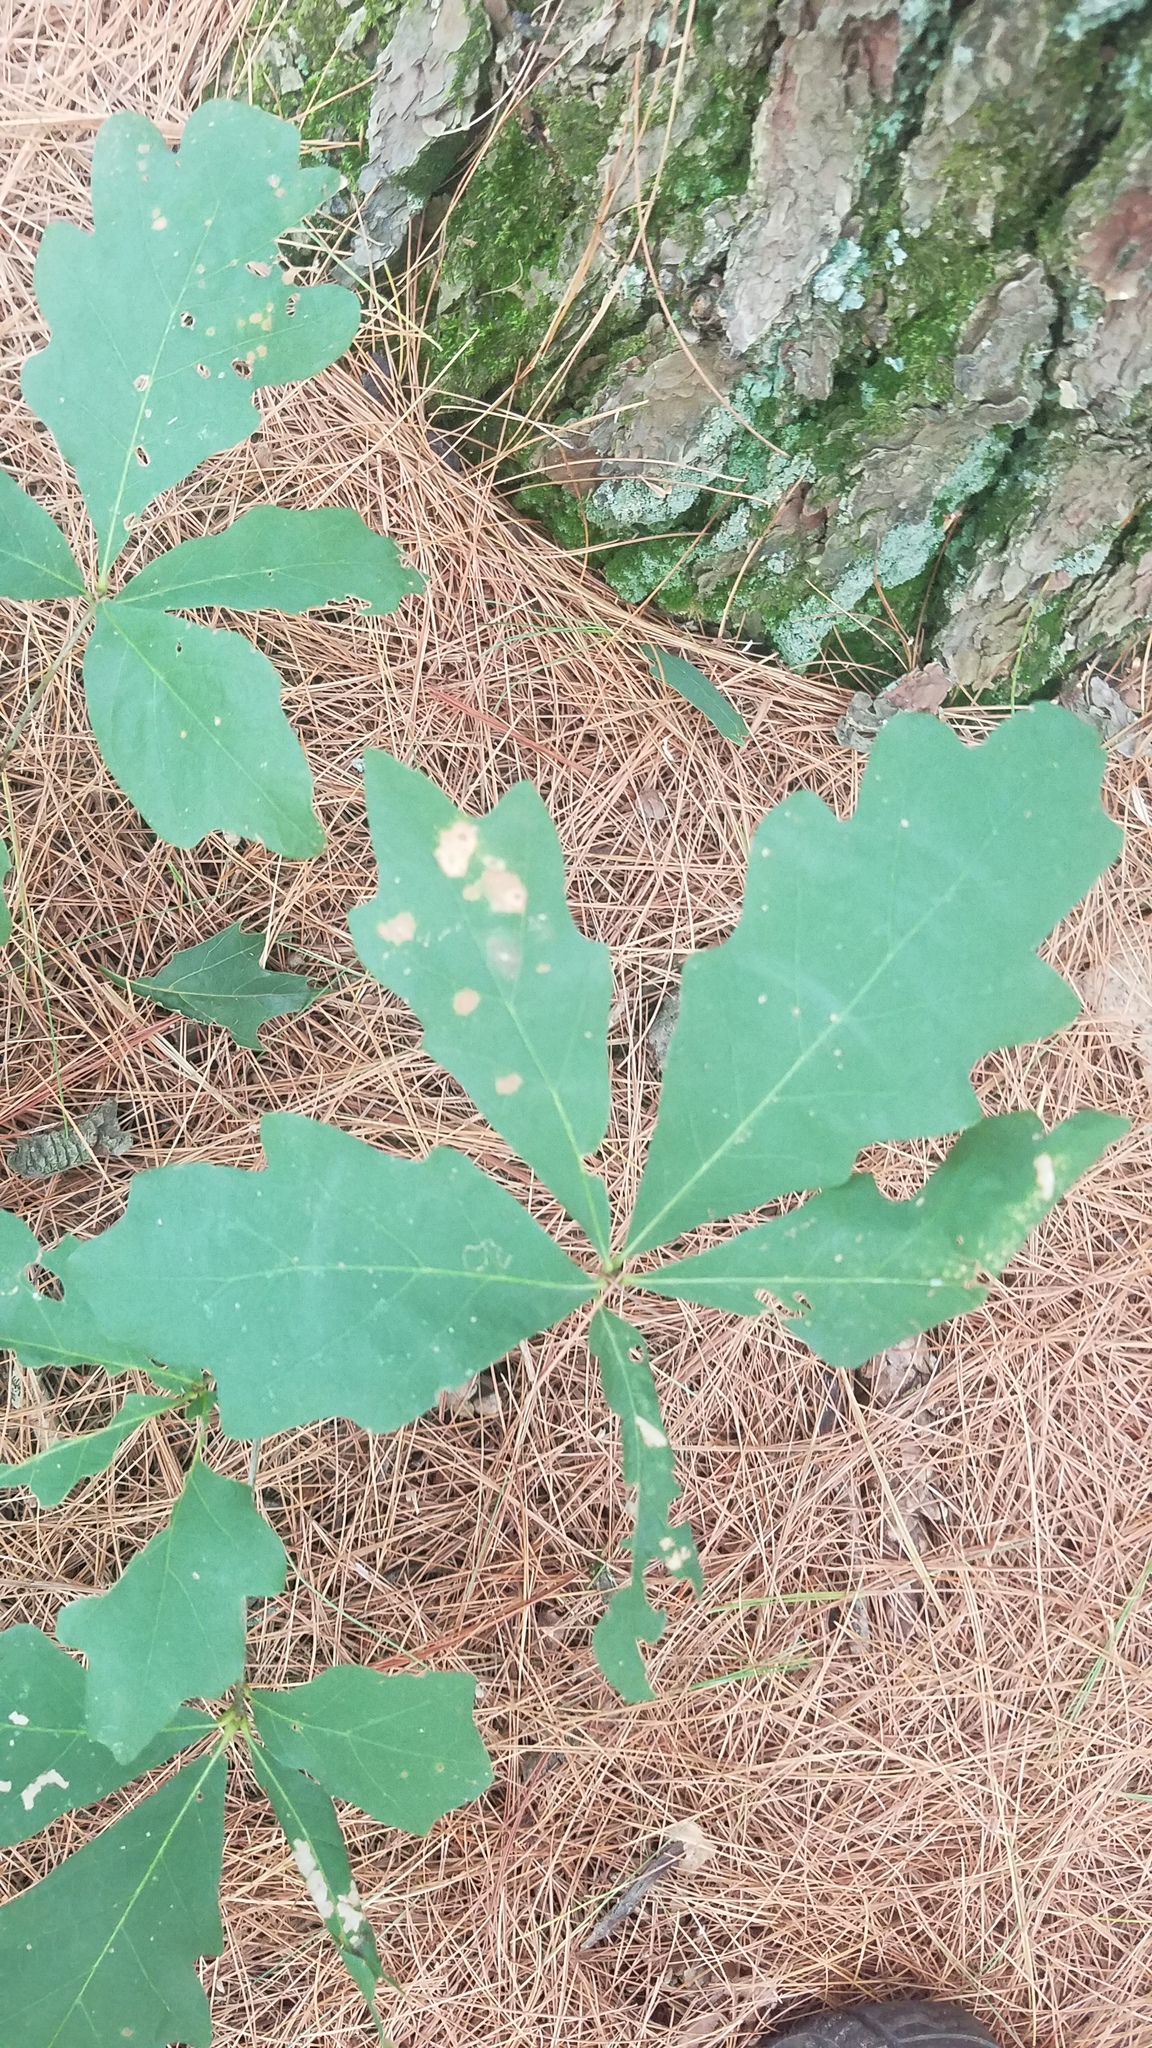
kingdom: Plantae
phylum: Tracheophyta
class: Magnoliopsida
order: Fagales
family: Fagaceae
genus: Quercus
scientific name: Quercus alba
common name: White oak
